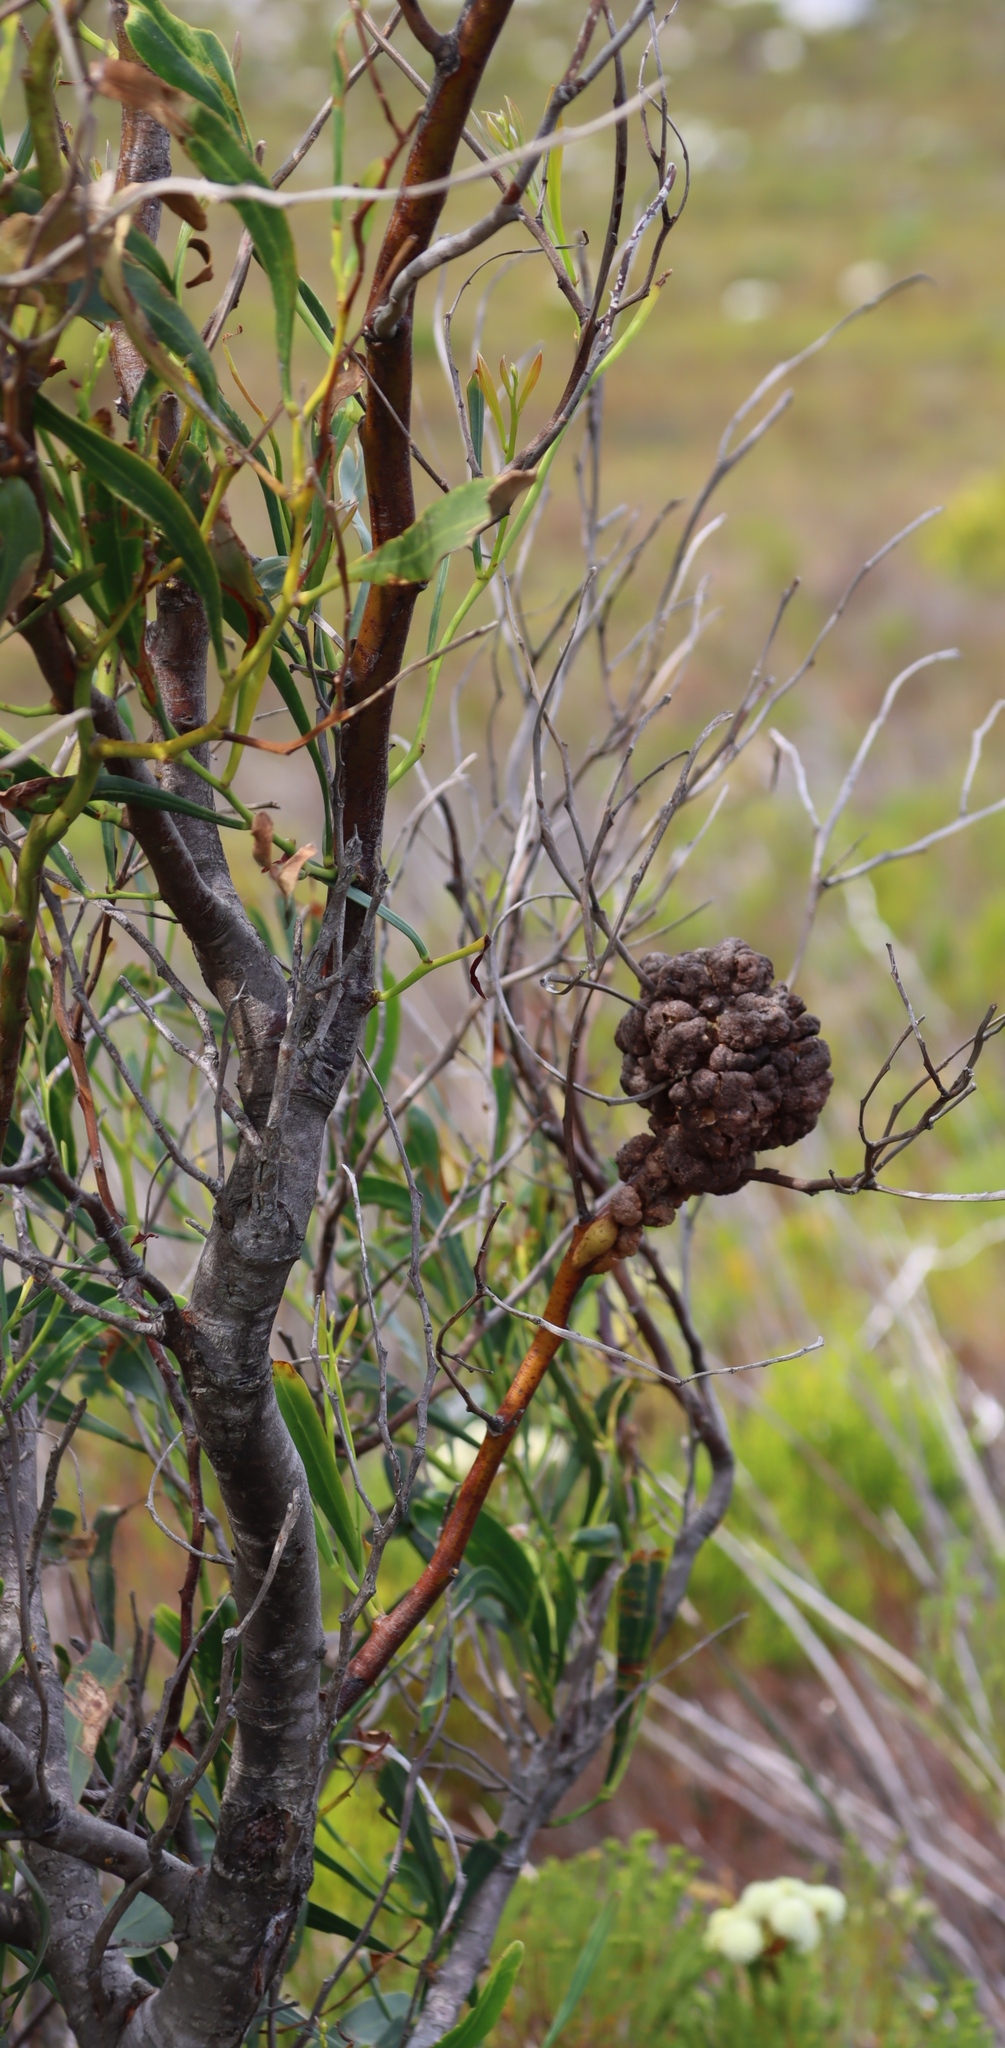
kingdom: Fungi
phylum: Basidiomycota
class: Pucciniomycetes
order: Pucciniales
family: Uromycladiaceae
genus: Uromycladium
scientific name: Uromycladium morrisii
